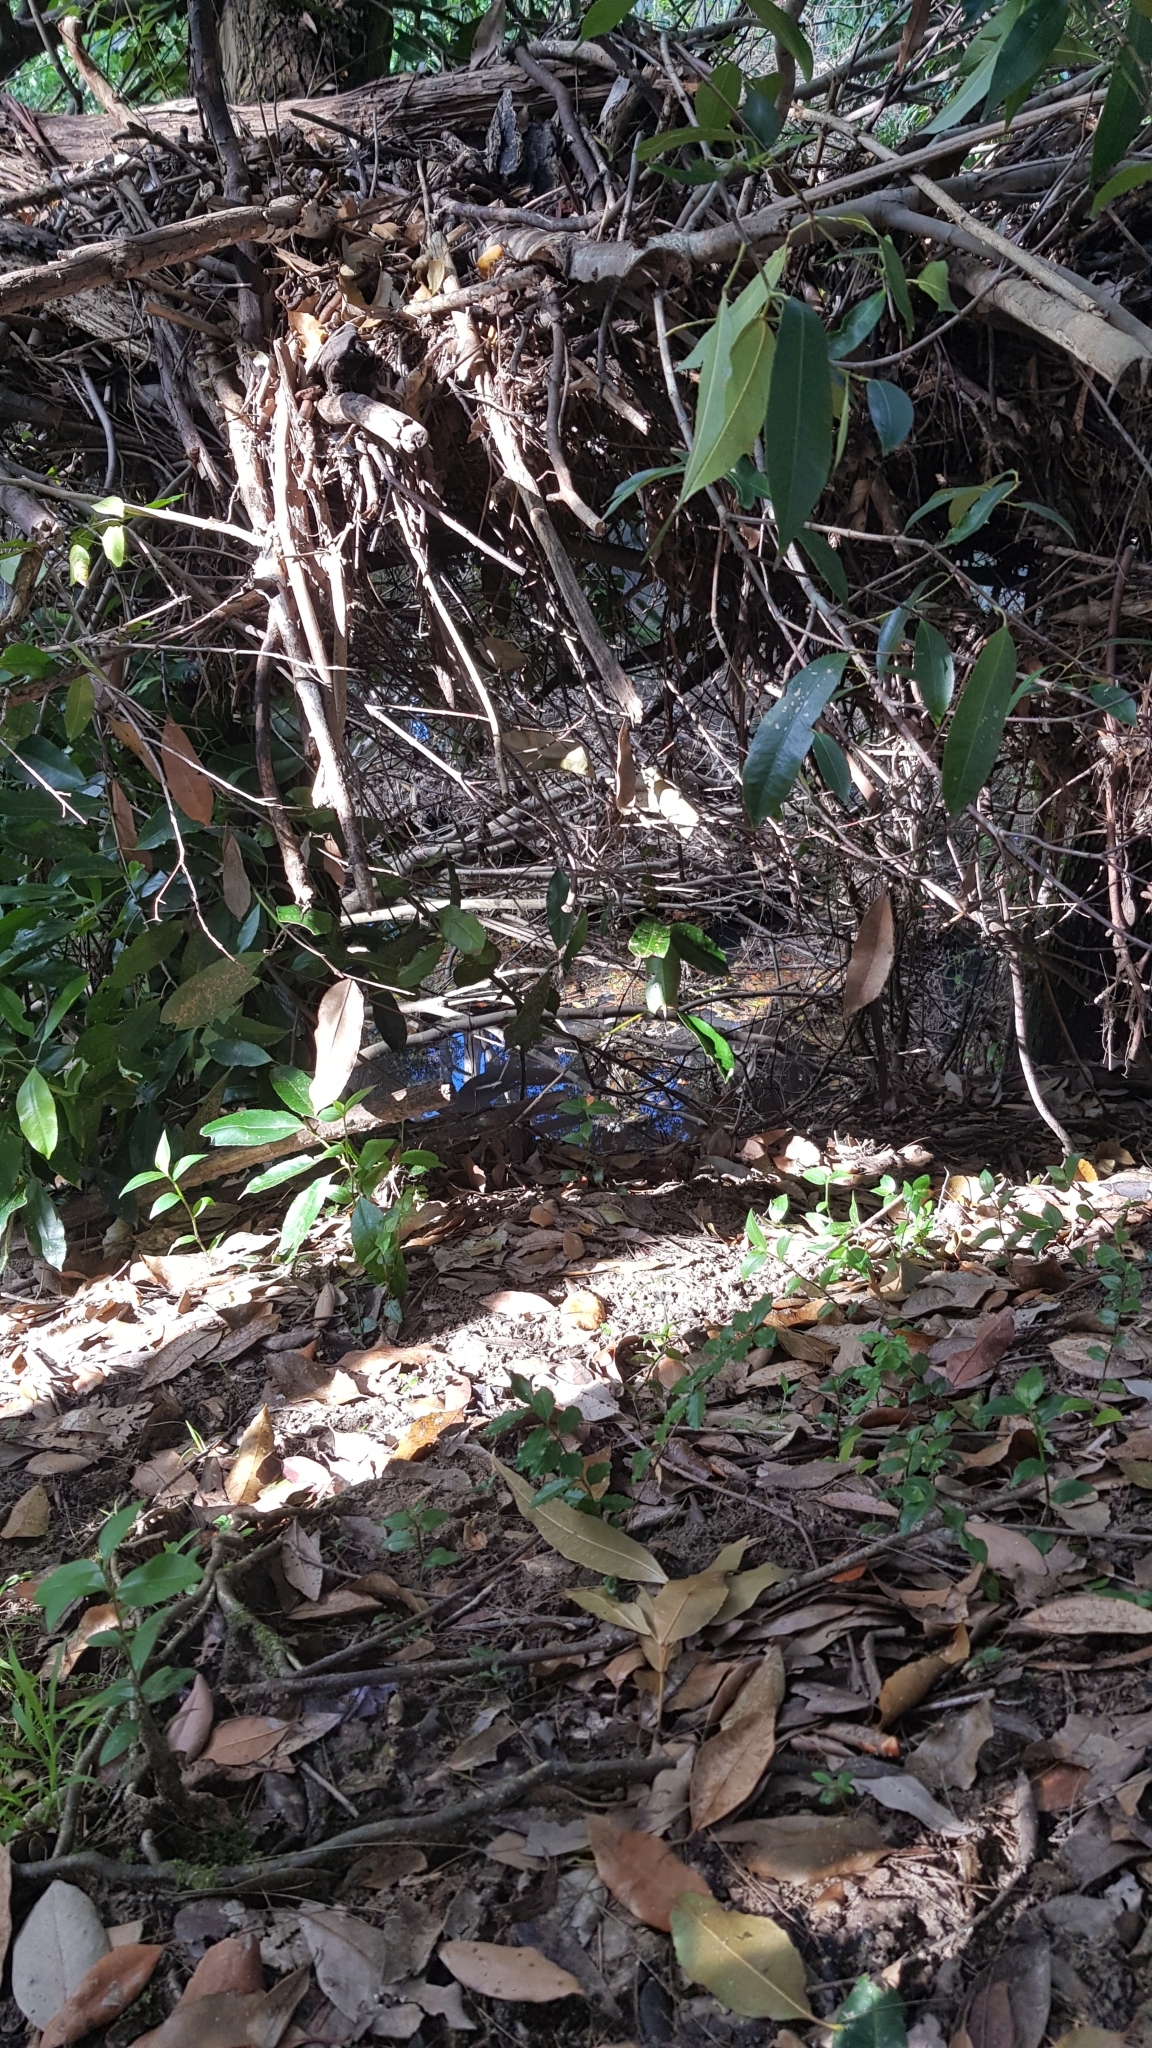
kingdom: Animalia
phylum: Chordata
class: Amphibia
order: Anura
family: Pelodryadidae
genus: Ranoidea
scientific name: Ranoidea phyllochroa
